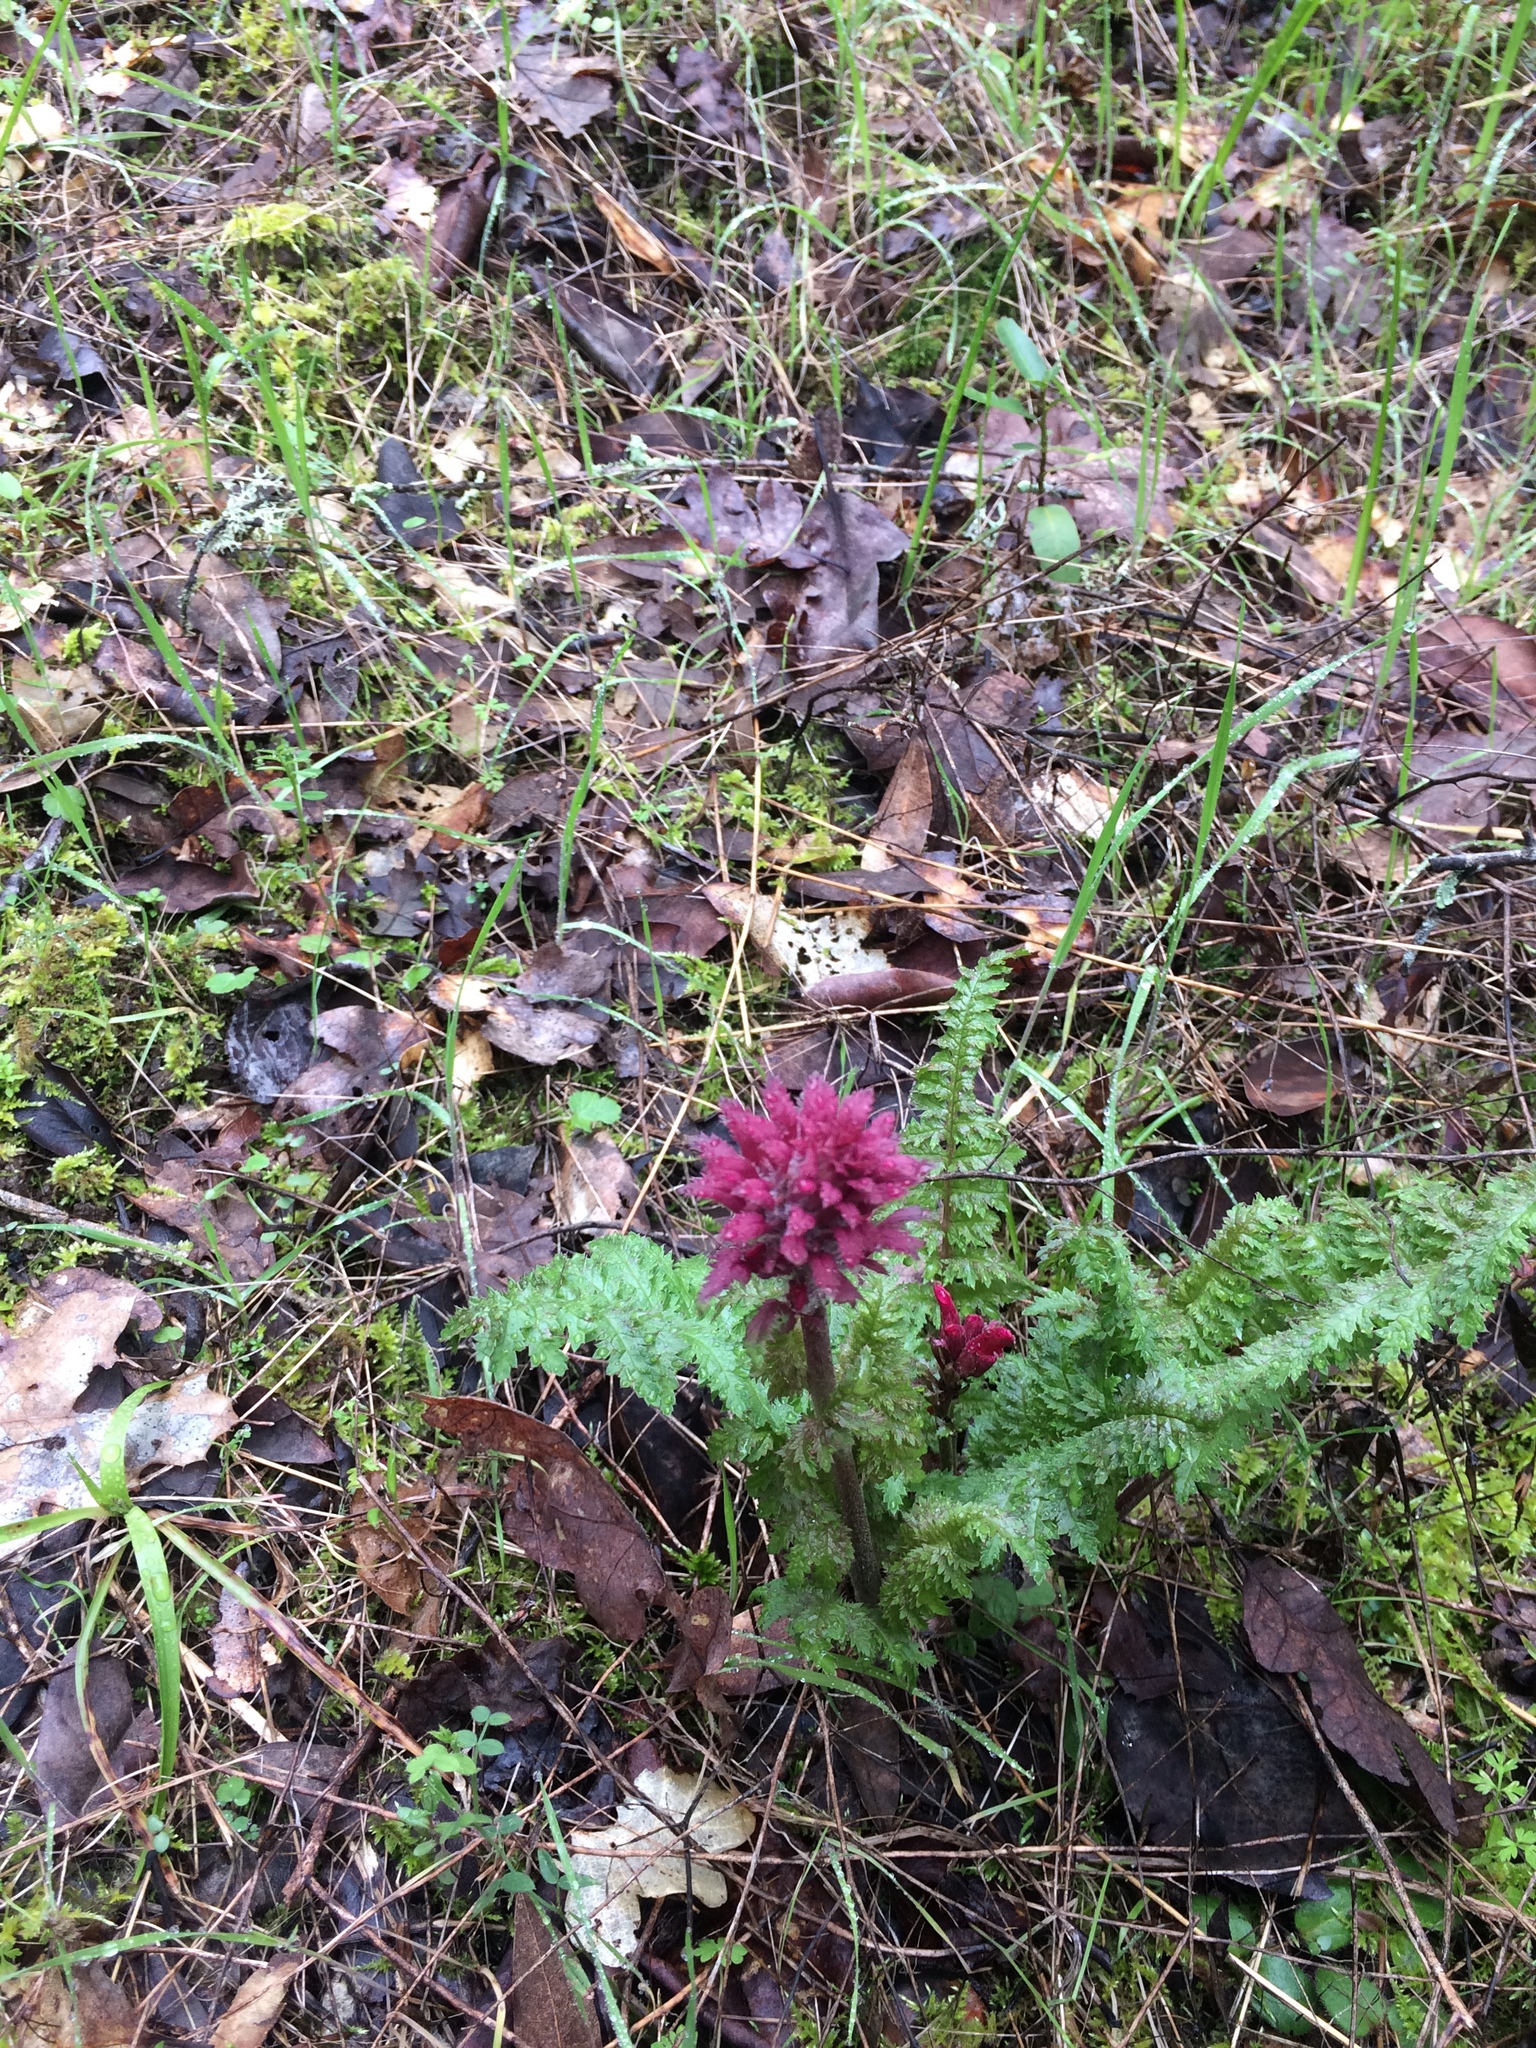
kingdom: Plantae
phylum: Tracheophyta
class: Magnoliopsida
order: Lamiales
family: Orobanchaceae
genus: Pedicularis
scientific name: Pedicularis densiflora
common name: Indian warrior
